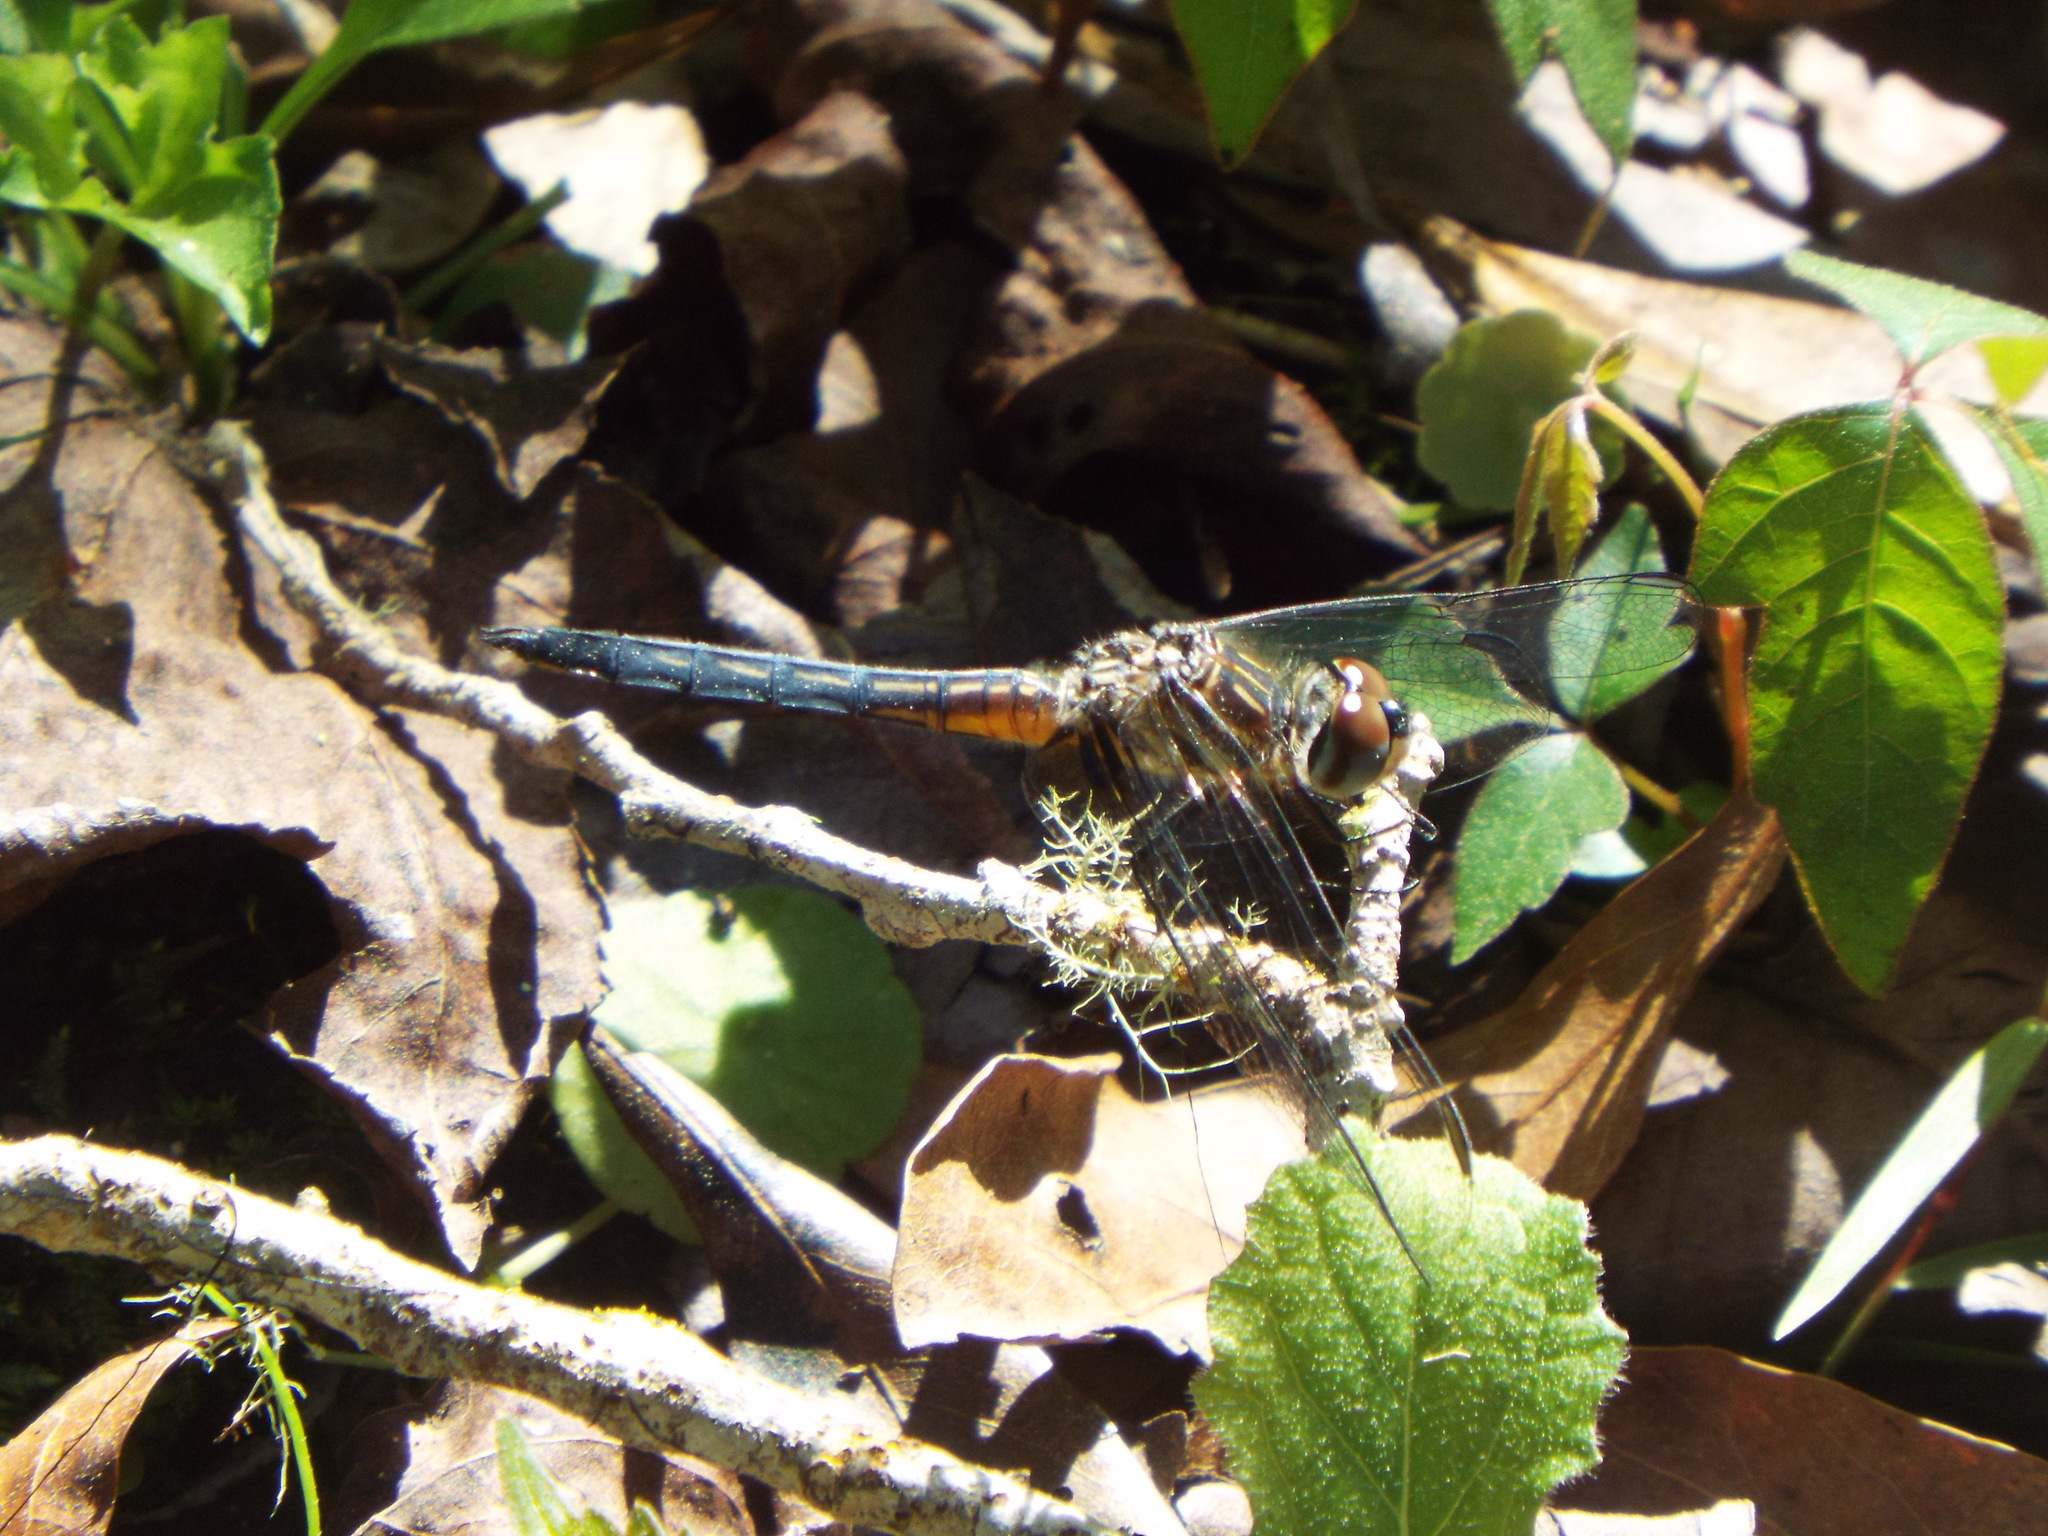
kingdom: Animalia
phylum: Arthropoda
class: Insecta
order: Odonata
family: Libellulidae
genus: Pachydiplax
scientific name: Pachydiplax longipennis
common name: Blue dasher
